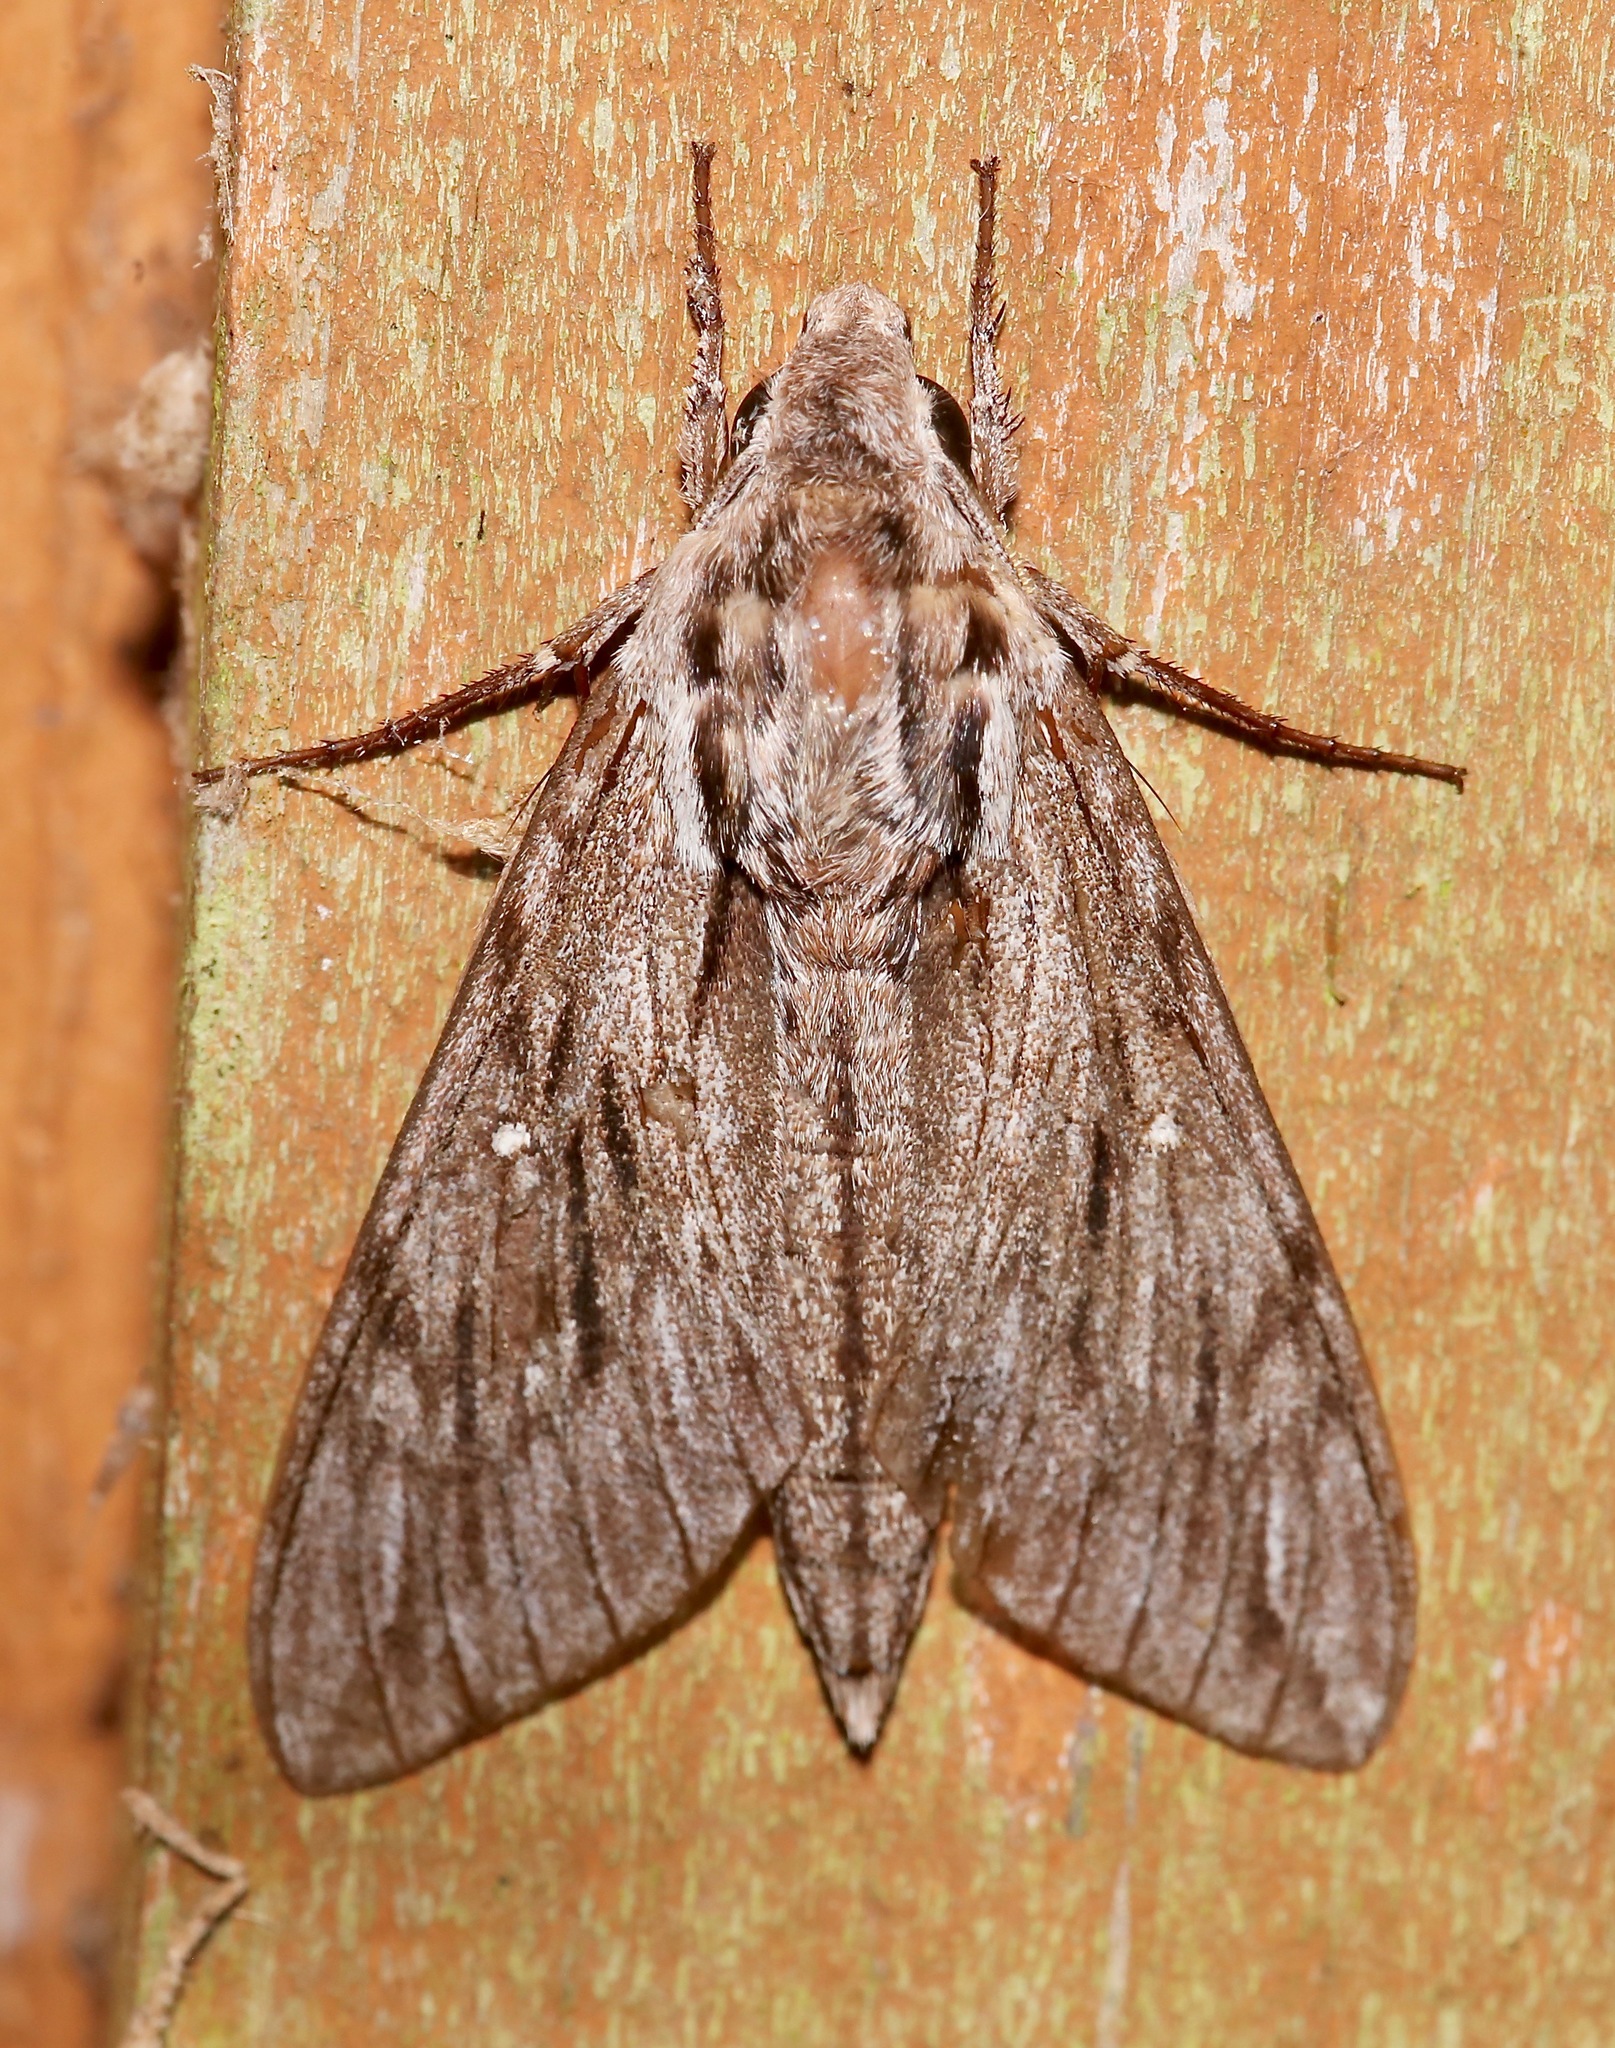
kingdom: Animalia
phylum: Arthropoda
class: Insecta
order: Lepidoptera
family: Sphingidae
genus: Paratrea
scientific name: Paratrea plebeja
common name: Plebian sphinx
